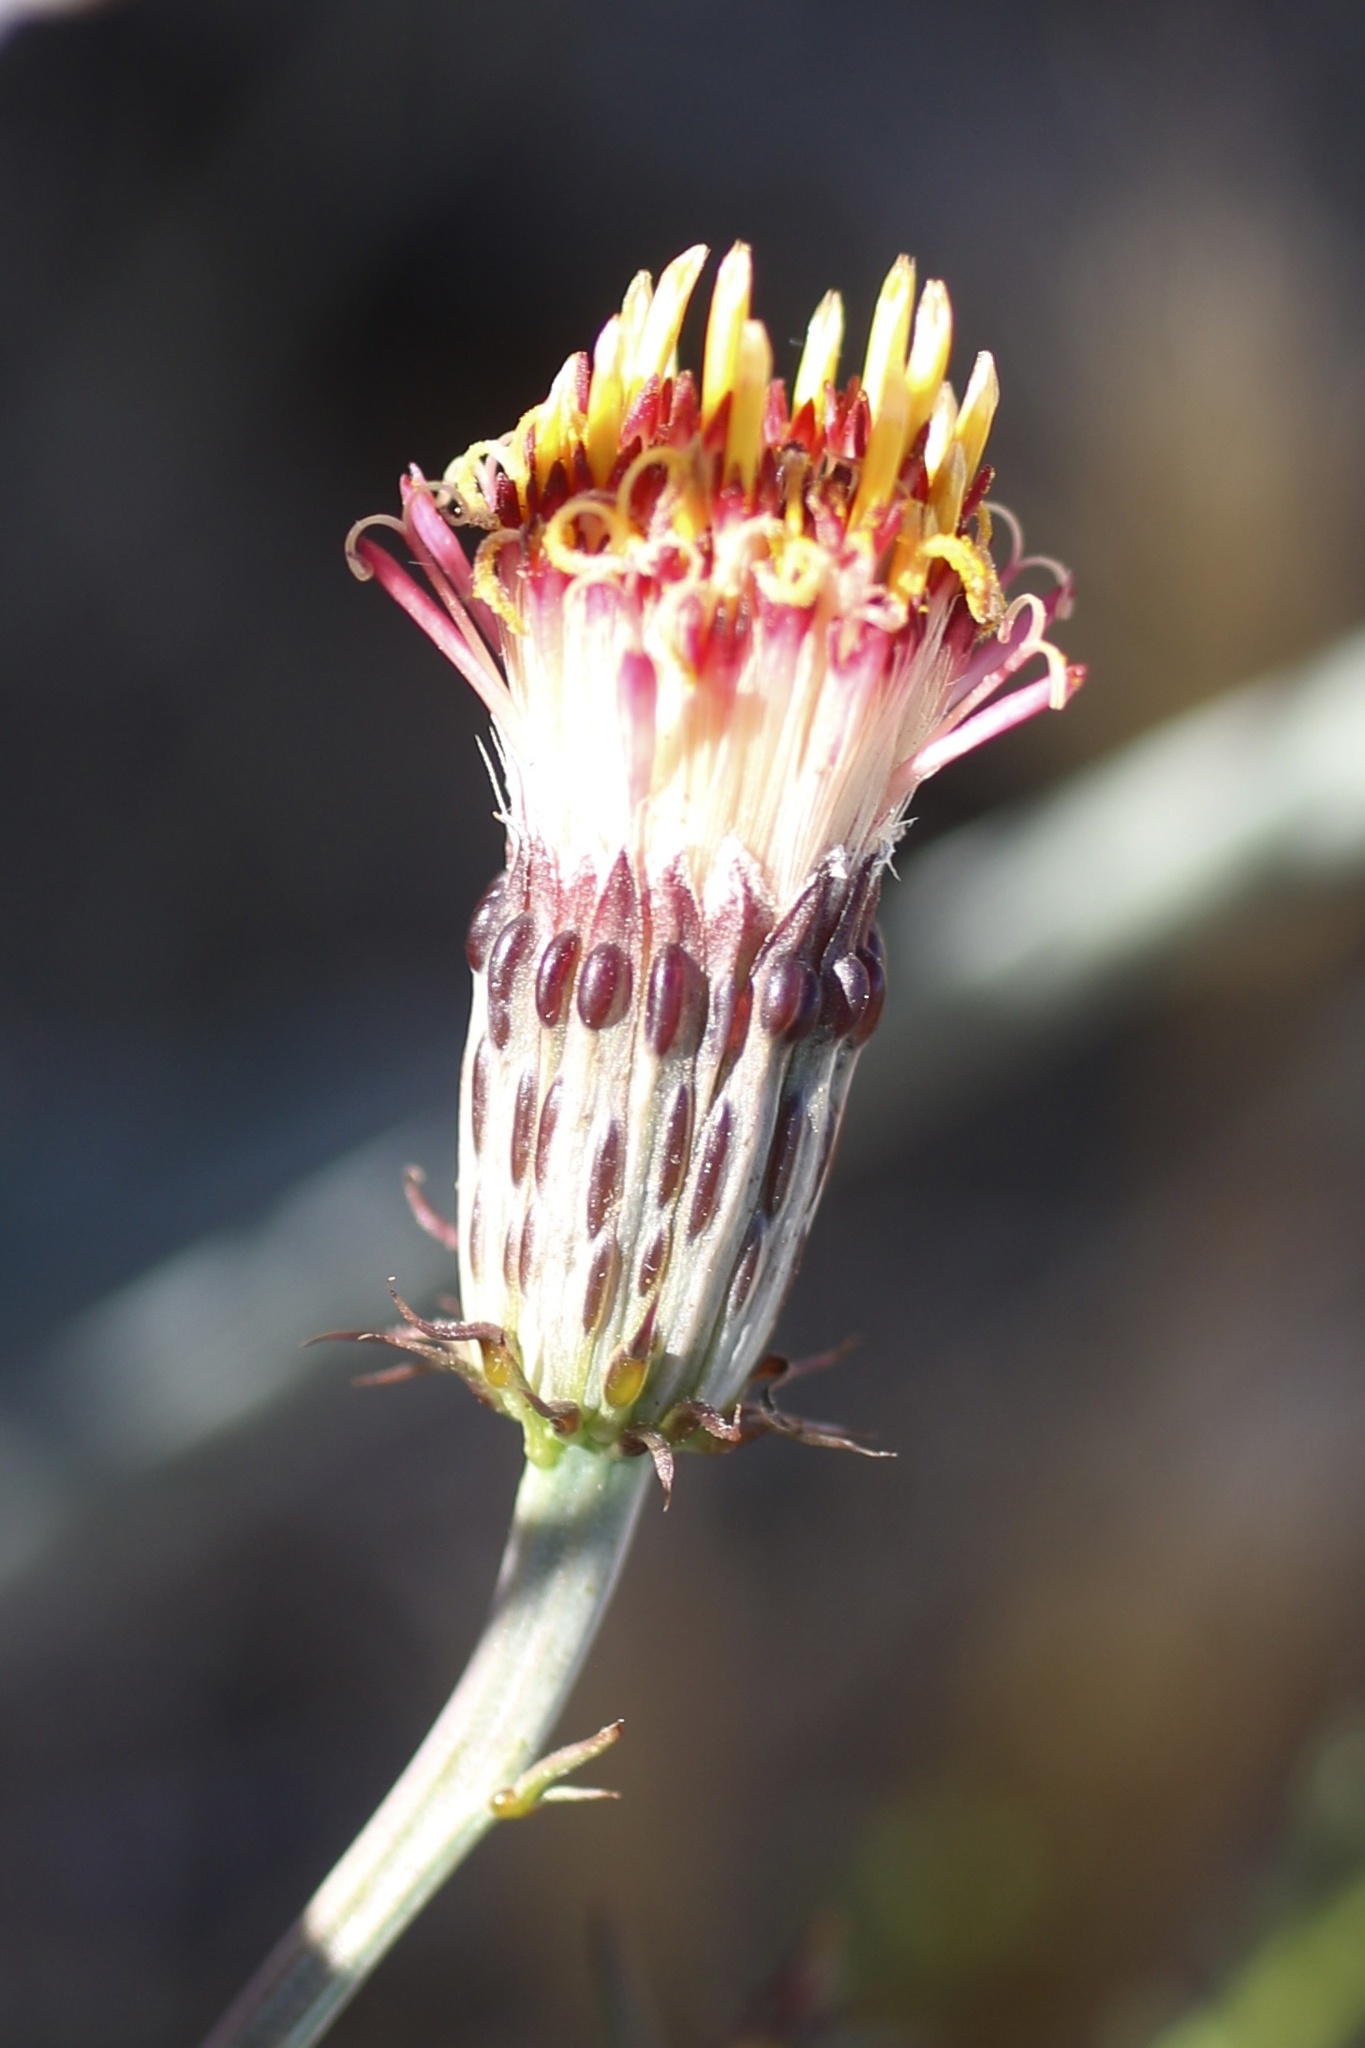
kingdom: Plantae
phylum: Tracheophyta
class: Magnoliopsida
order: Asterales
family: Asteraceae
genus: Adenophyllum
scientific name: Adenophyllum porophylloides
